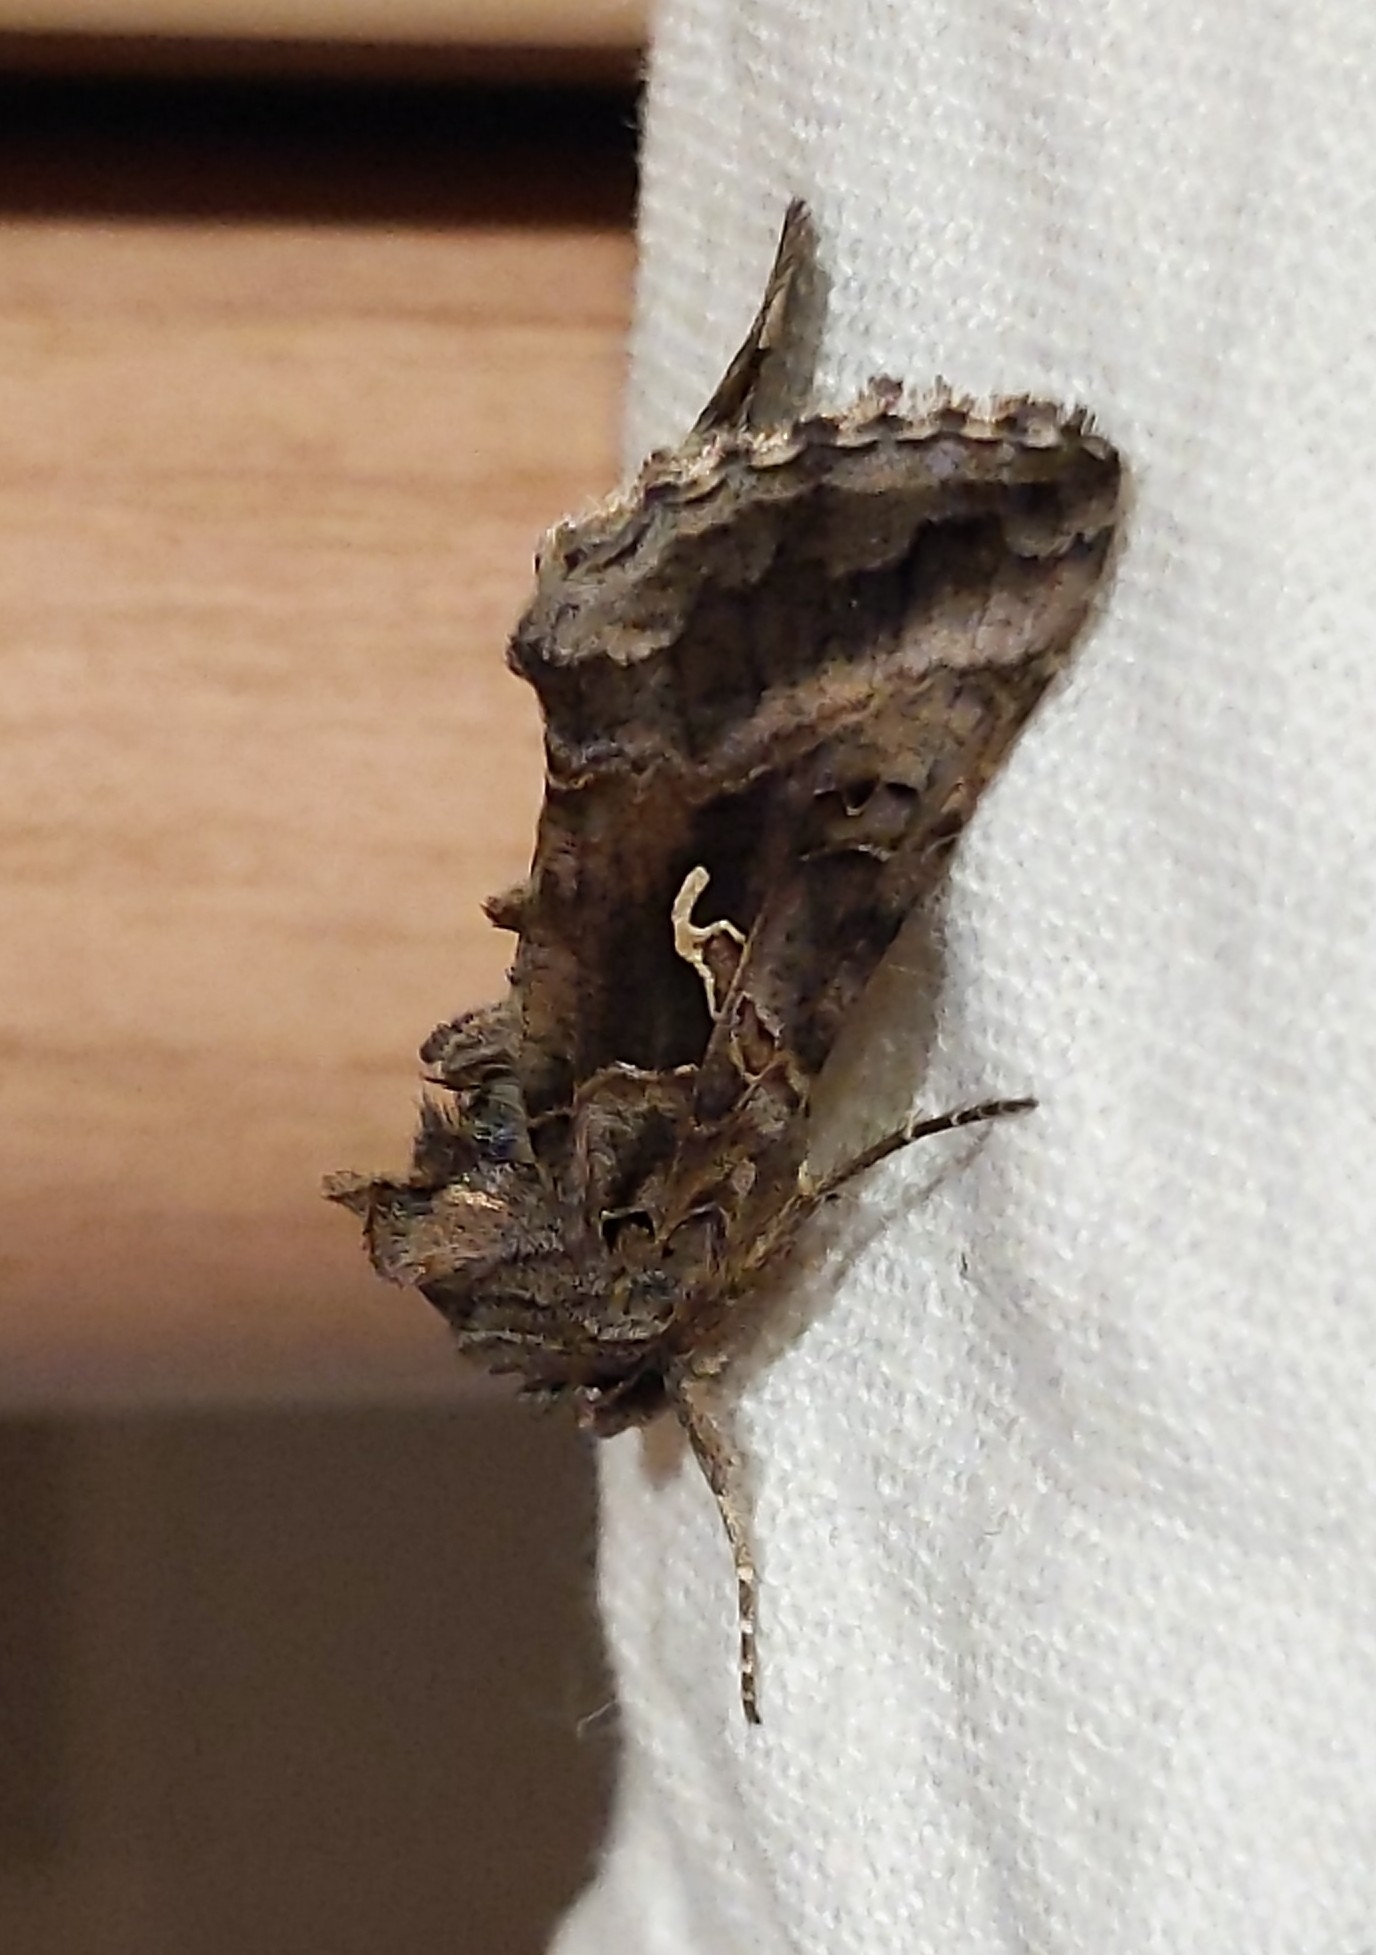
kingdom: Animalia
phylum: Arthropoda
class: Insecta
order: Lepidoptera
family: Noctuidae
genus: Autographa
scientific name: Autographa gamma
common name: Silver y
